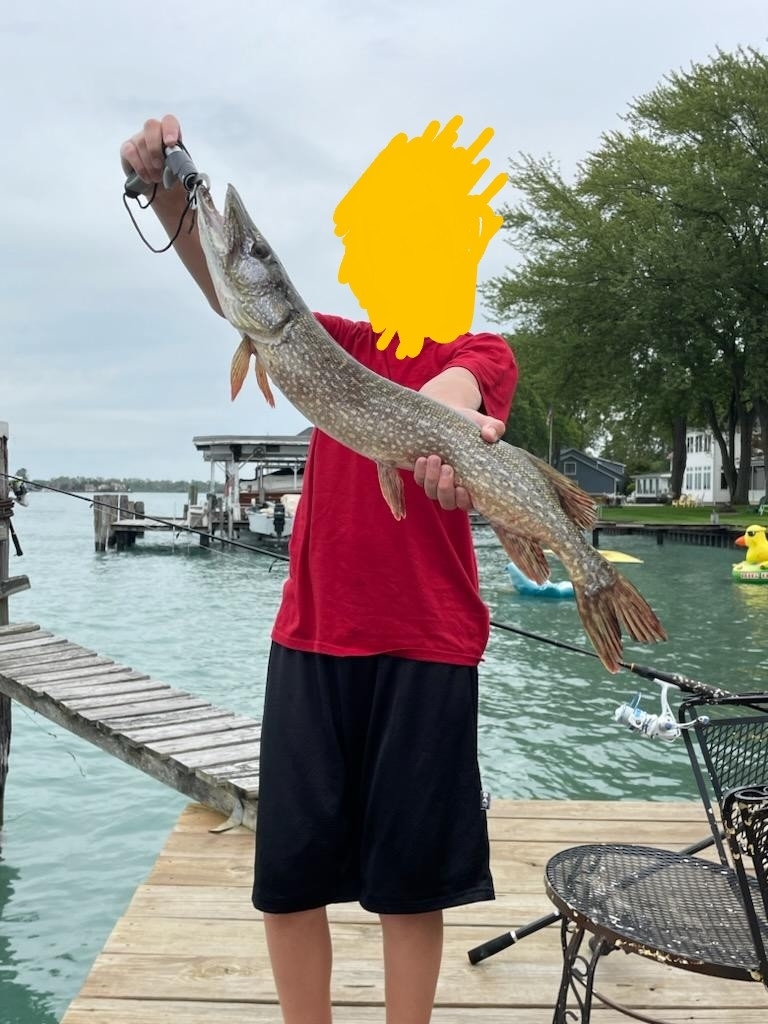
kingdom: Animalia
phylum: Chordata
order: Esociformes
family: Esocidae
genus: Esox
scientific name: Esox lucius
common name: Northern pike
